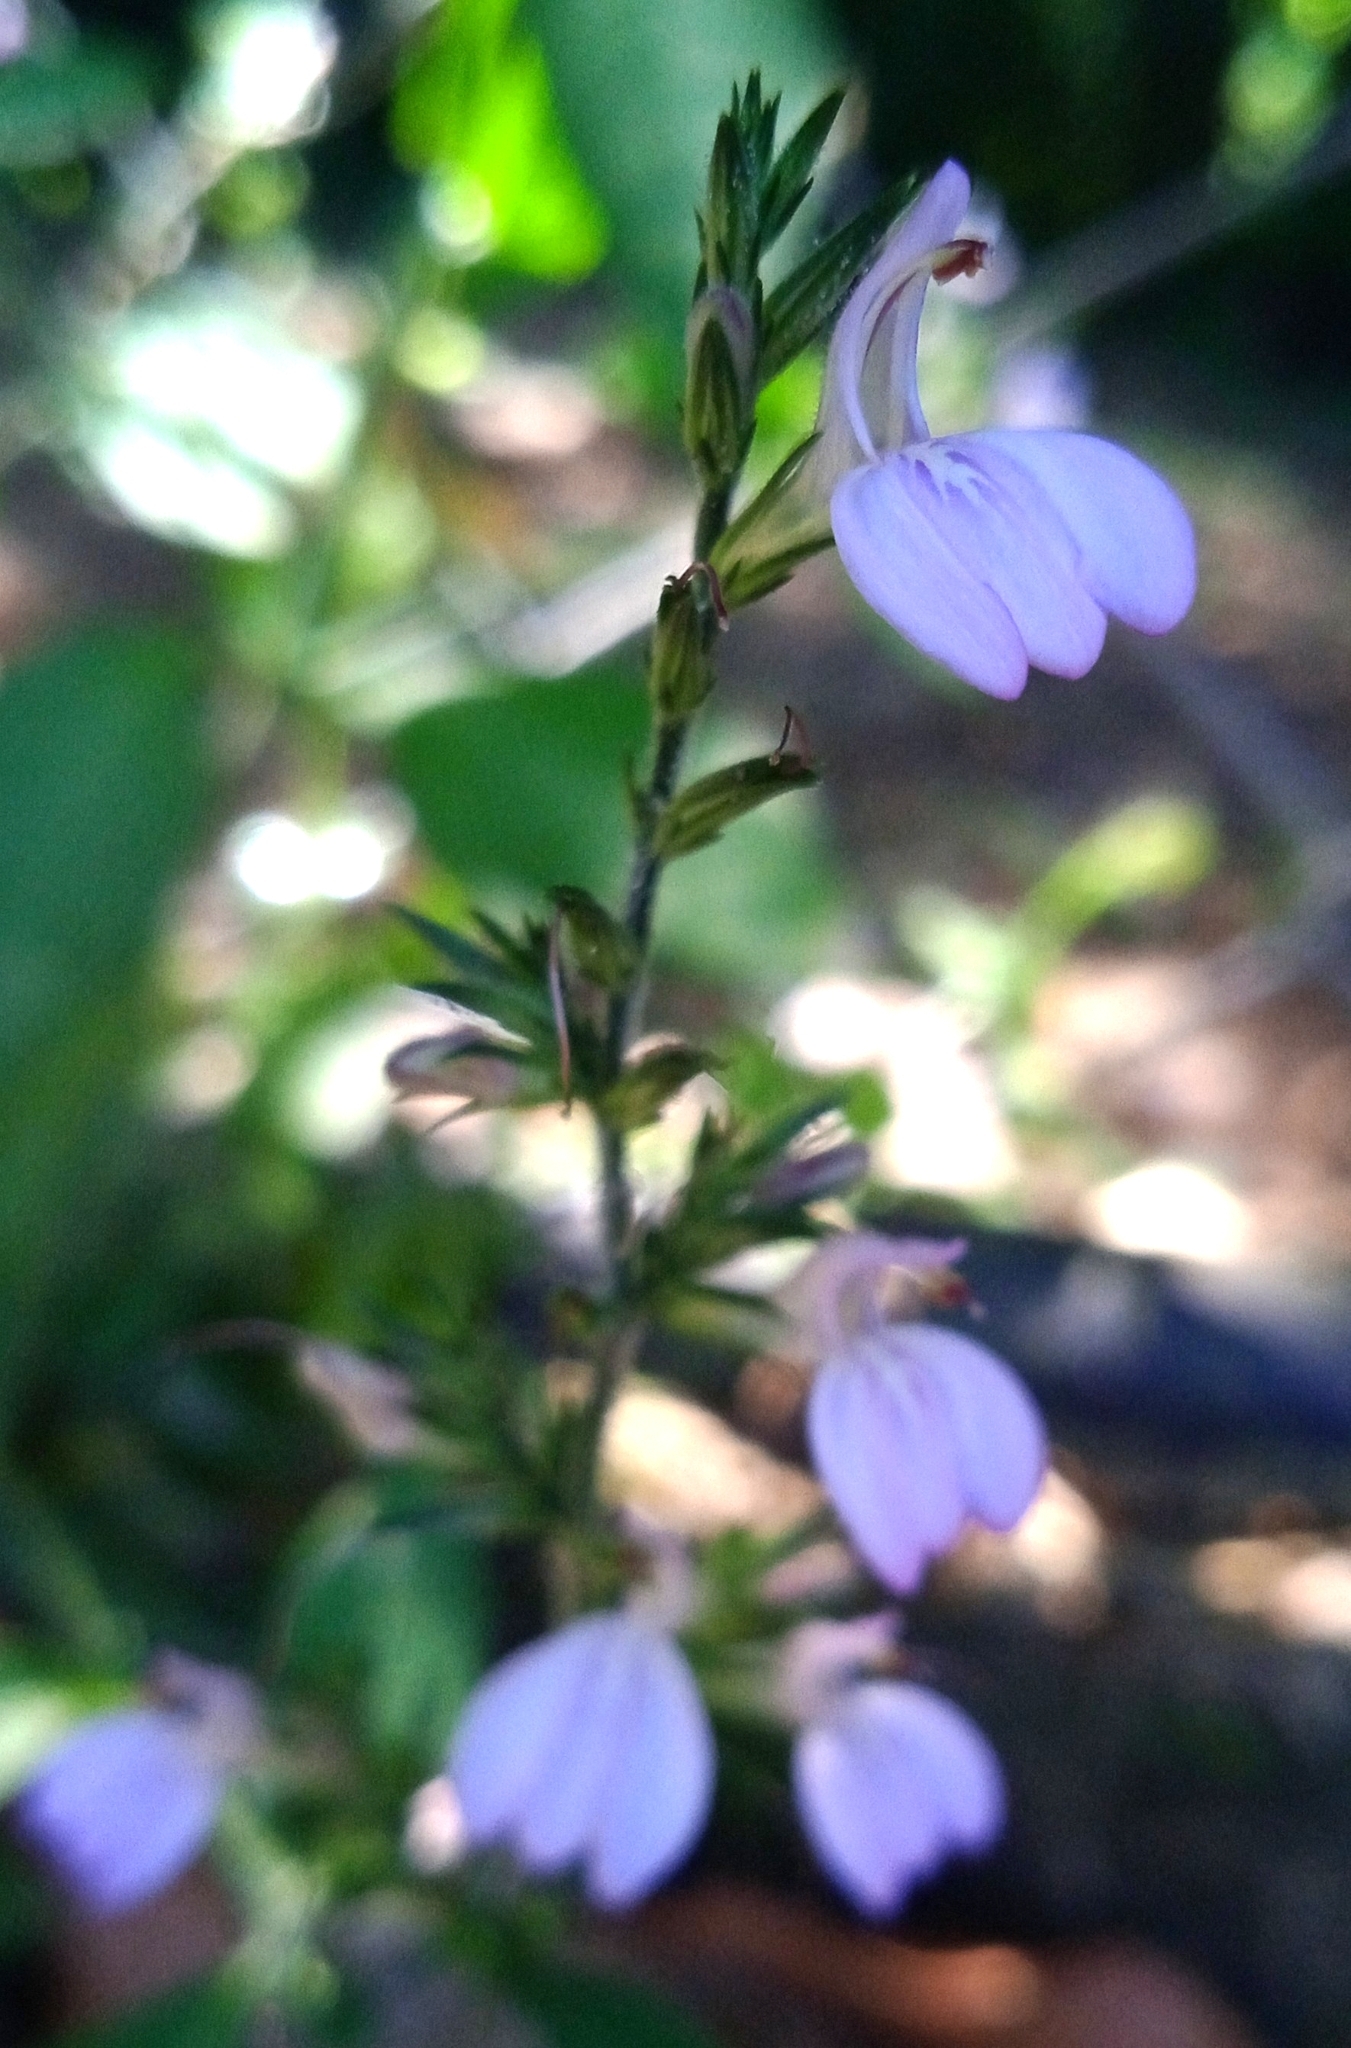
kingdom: Plantae
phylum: Tracheophyta
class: Magnoliopsida
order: Lamiales
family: Acanthaceae
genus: Justicia
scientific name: Justicia lythroides
